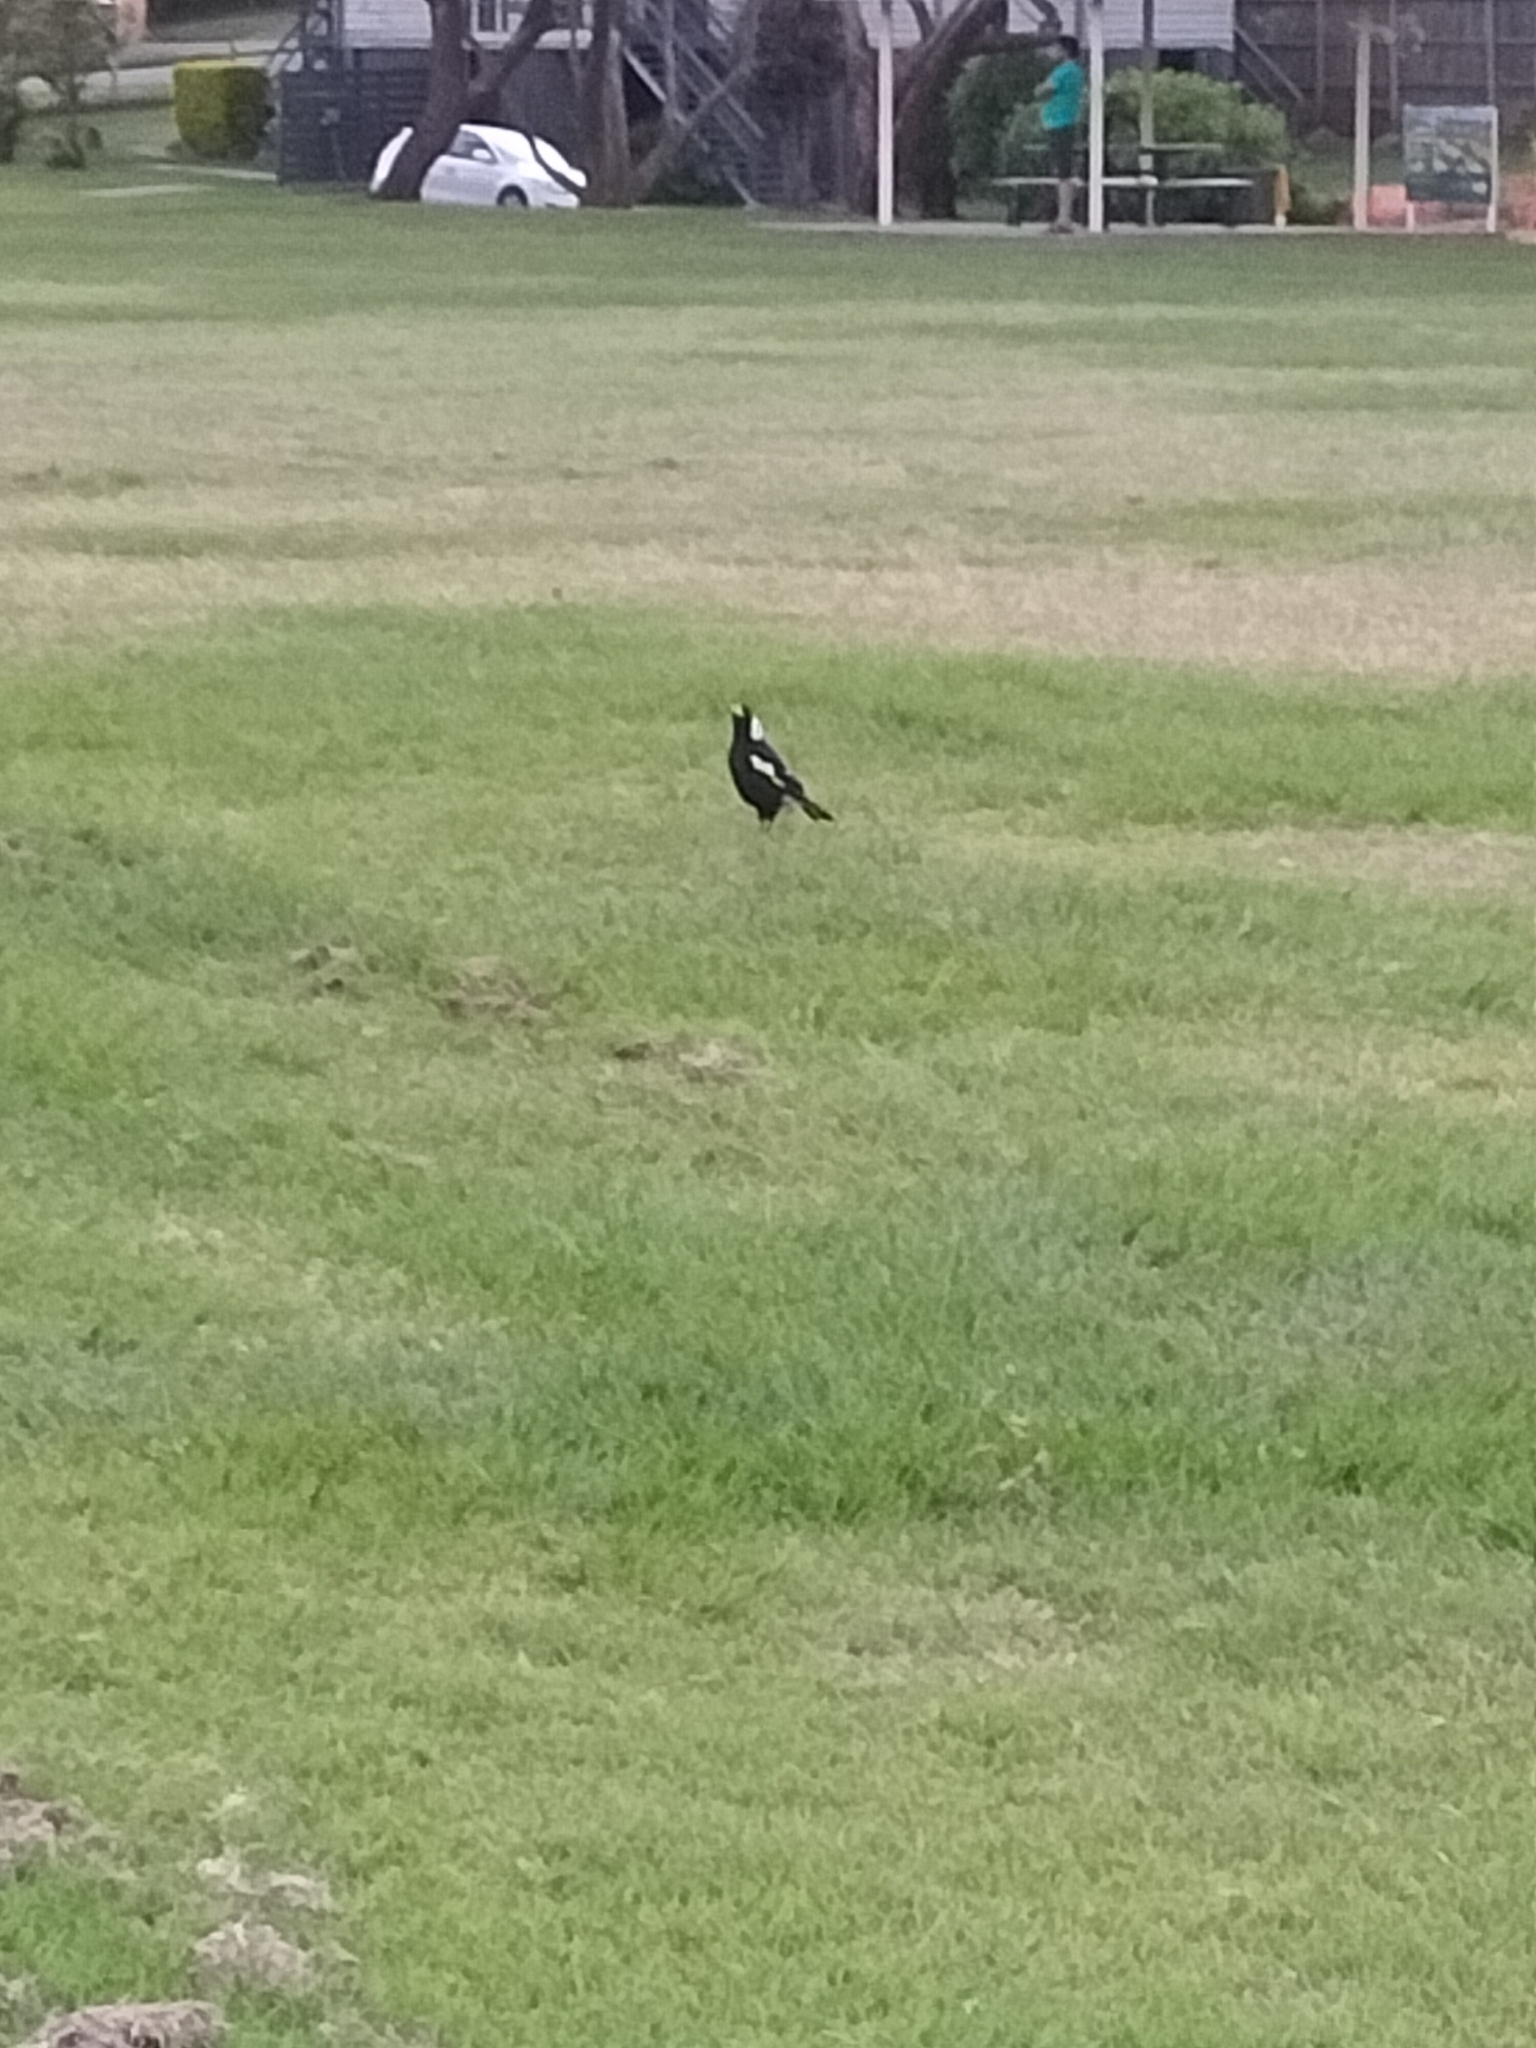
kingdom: Animalia
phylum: Chordata
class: Aves
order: Passeriformes
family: Cracticidae
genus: Gymnorhina
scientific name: Gymnorhina tibicen
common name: Australian magpie
